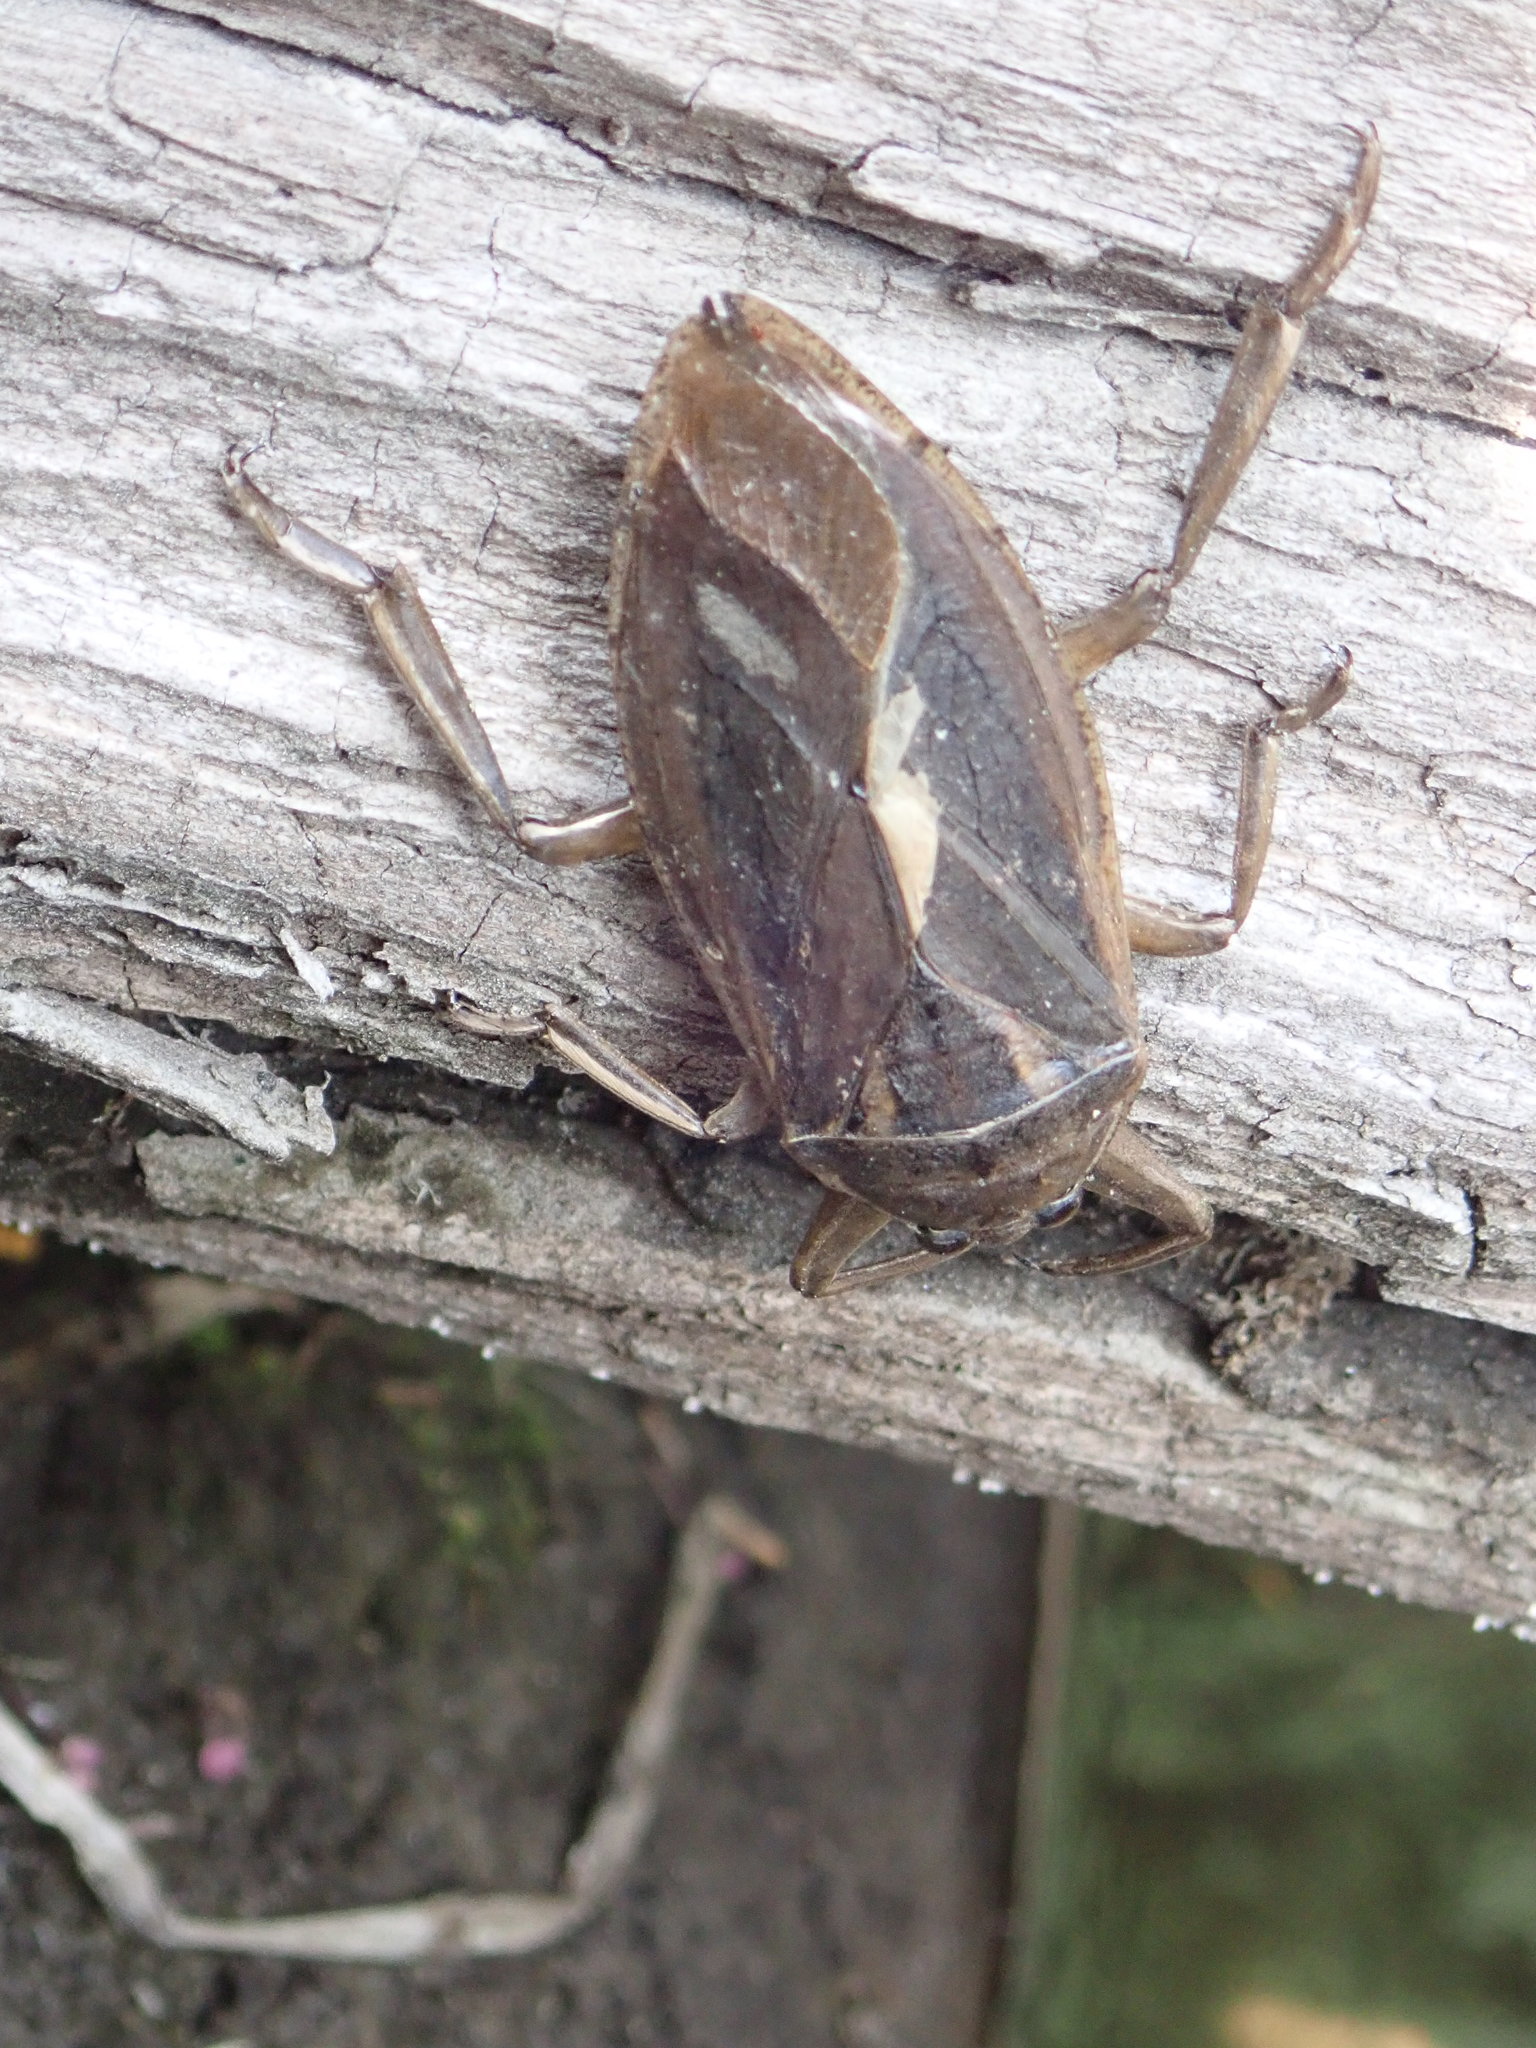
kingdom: Animalia
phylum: Arthropoda
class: Insecta
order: Hemiptera
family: Belostomatidae
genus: Lethocerus
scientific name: Lethocerus americanus
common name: Giant water bug
